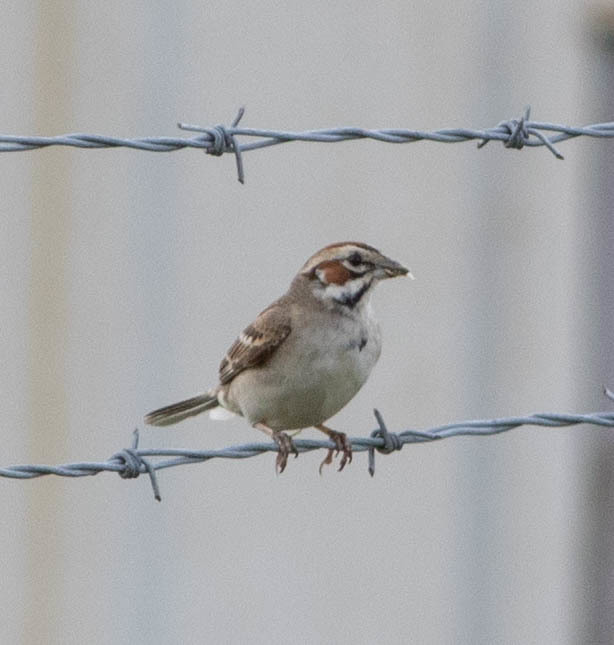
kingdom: Animalia
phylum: Chordata
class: Aves
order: Passeriformes
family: Passerellidae
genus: Chondestes
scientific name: Chondestes grammacus
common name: Lark sparrow
